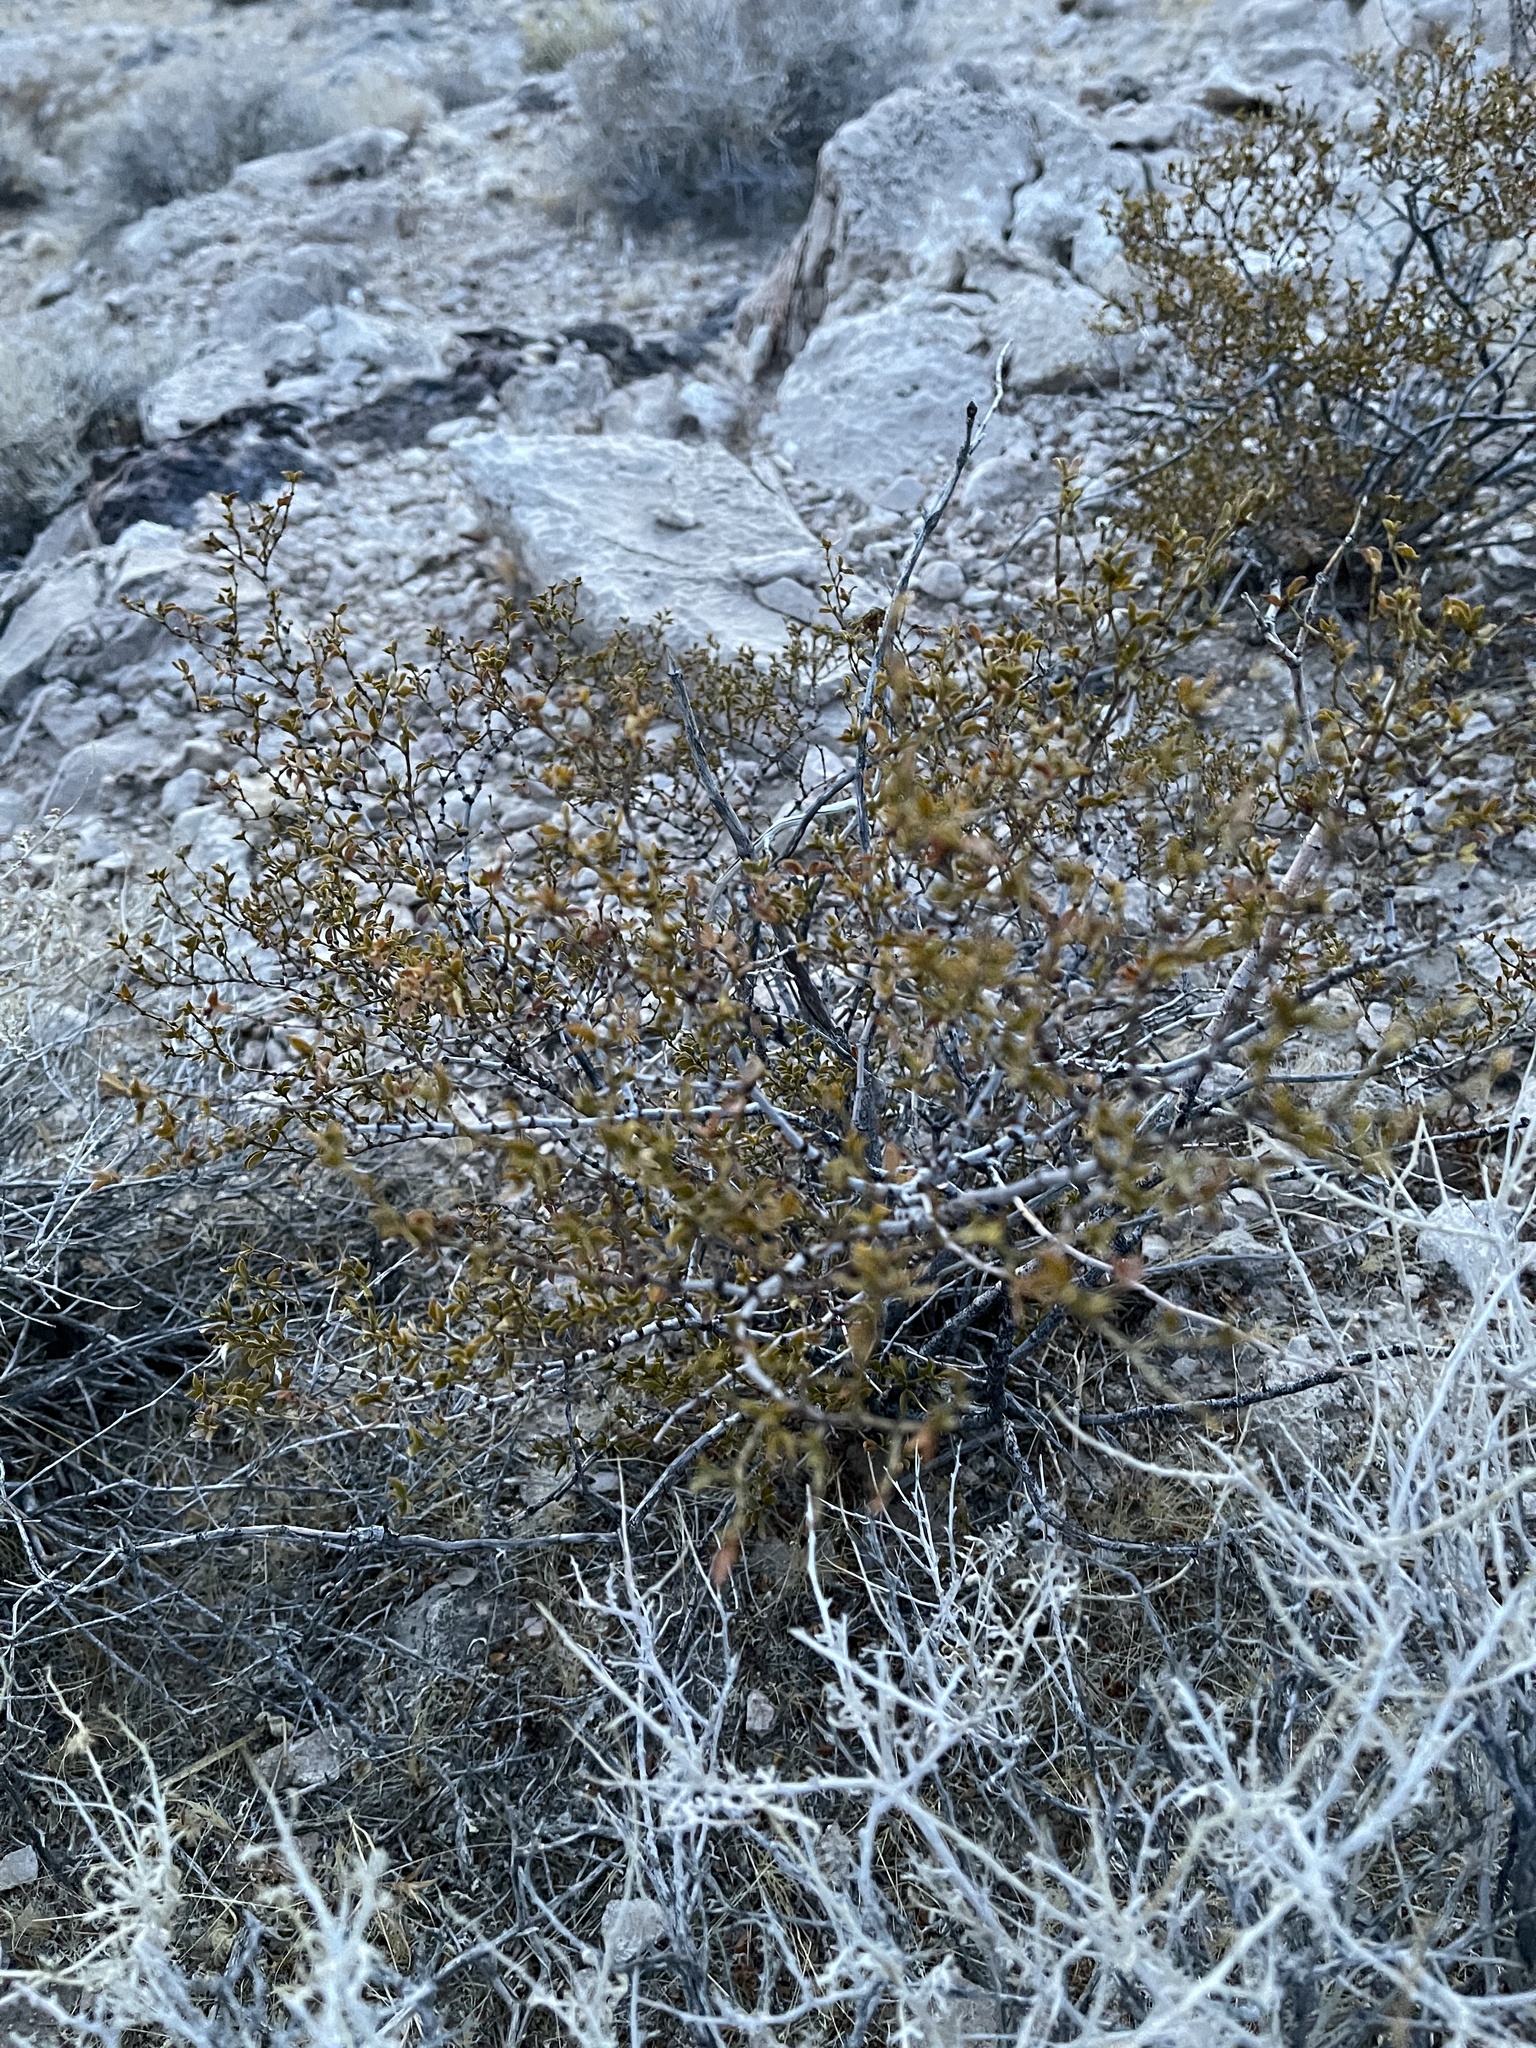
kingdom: Plantae
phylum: Tracheophyta
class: Magnoliopsida
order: Zygophyllales
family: Zygophyllaceae
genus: Larrea
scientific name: Larrea tridentata
